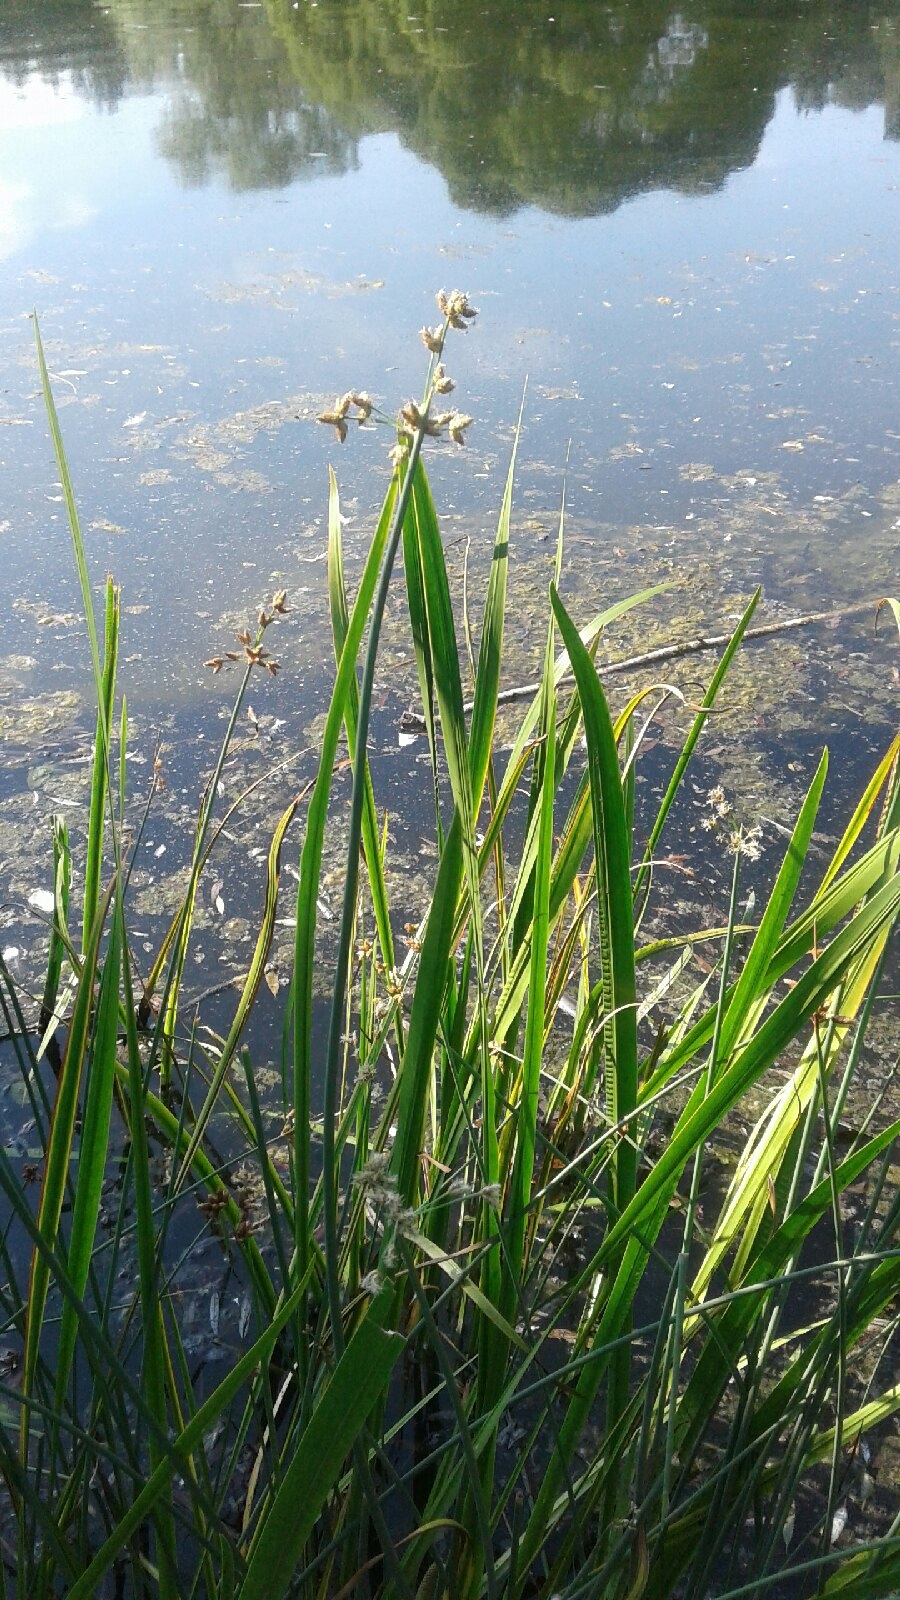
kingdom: Plantae
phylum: Tracheophyta
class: Liliopsida
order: Poales
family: Cyperaceae
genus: Schoenoplectus
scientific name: Schoenoplectus lacustris
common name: Common club-rush
